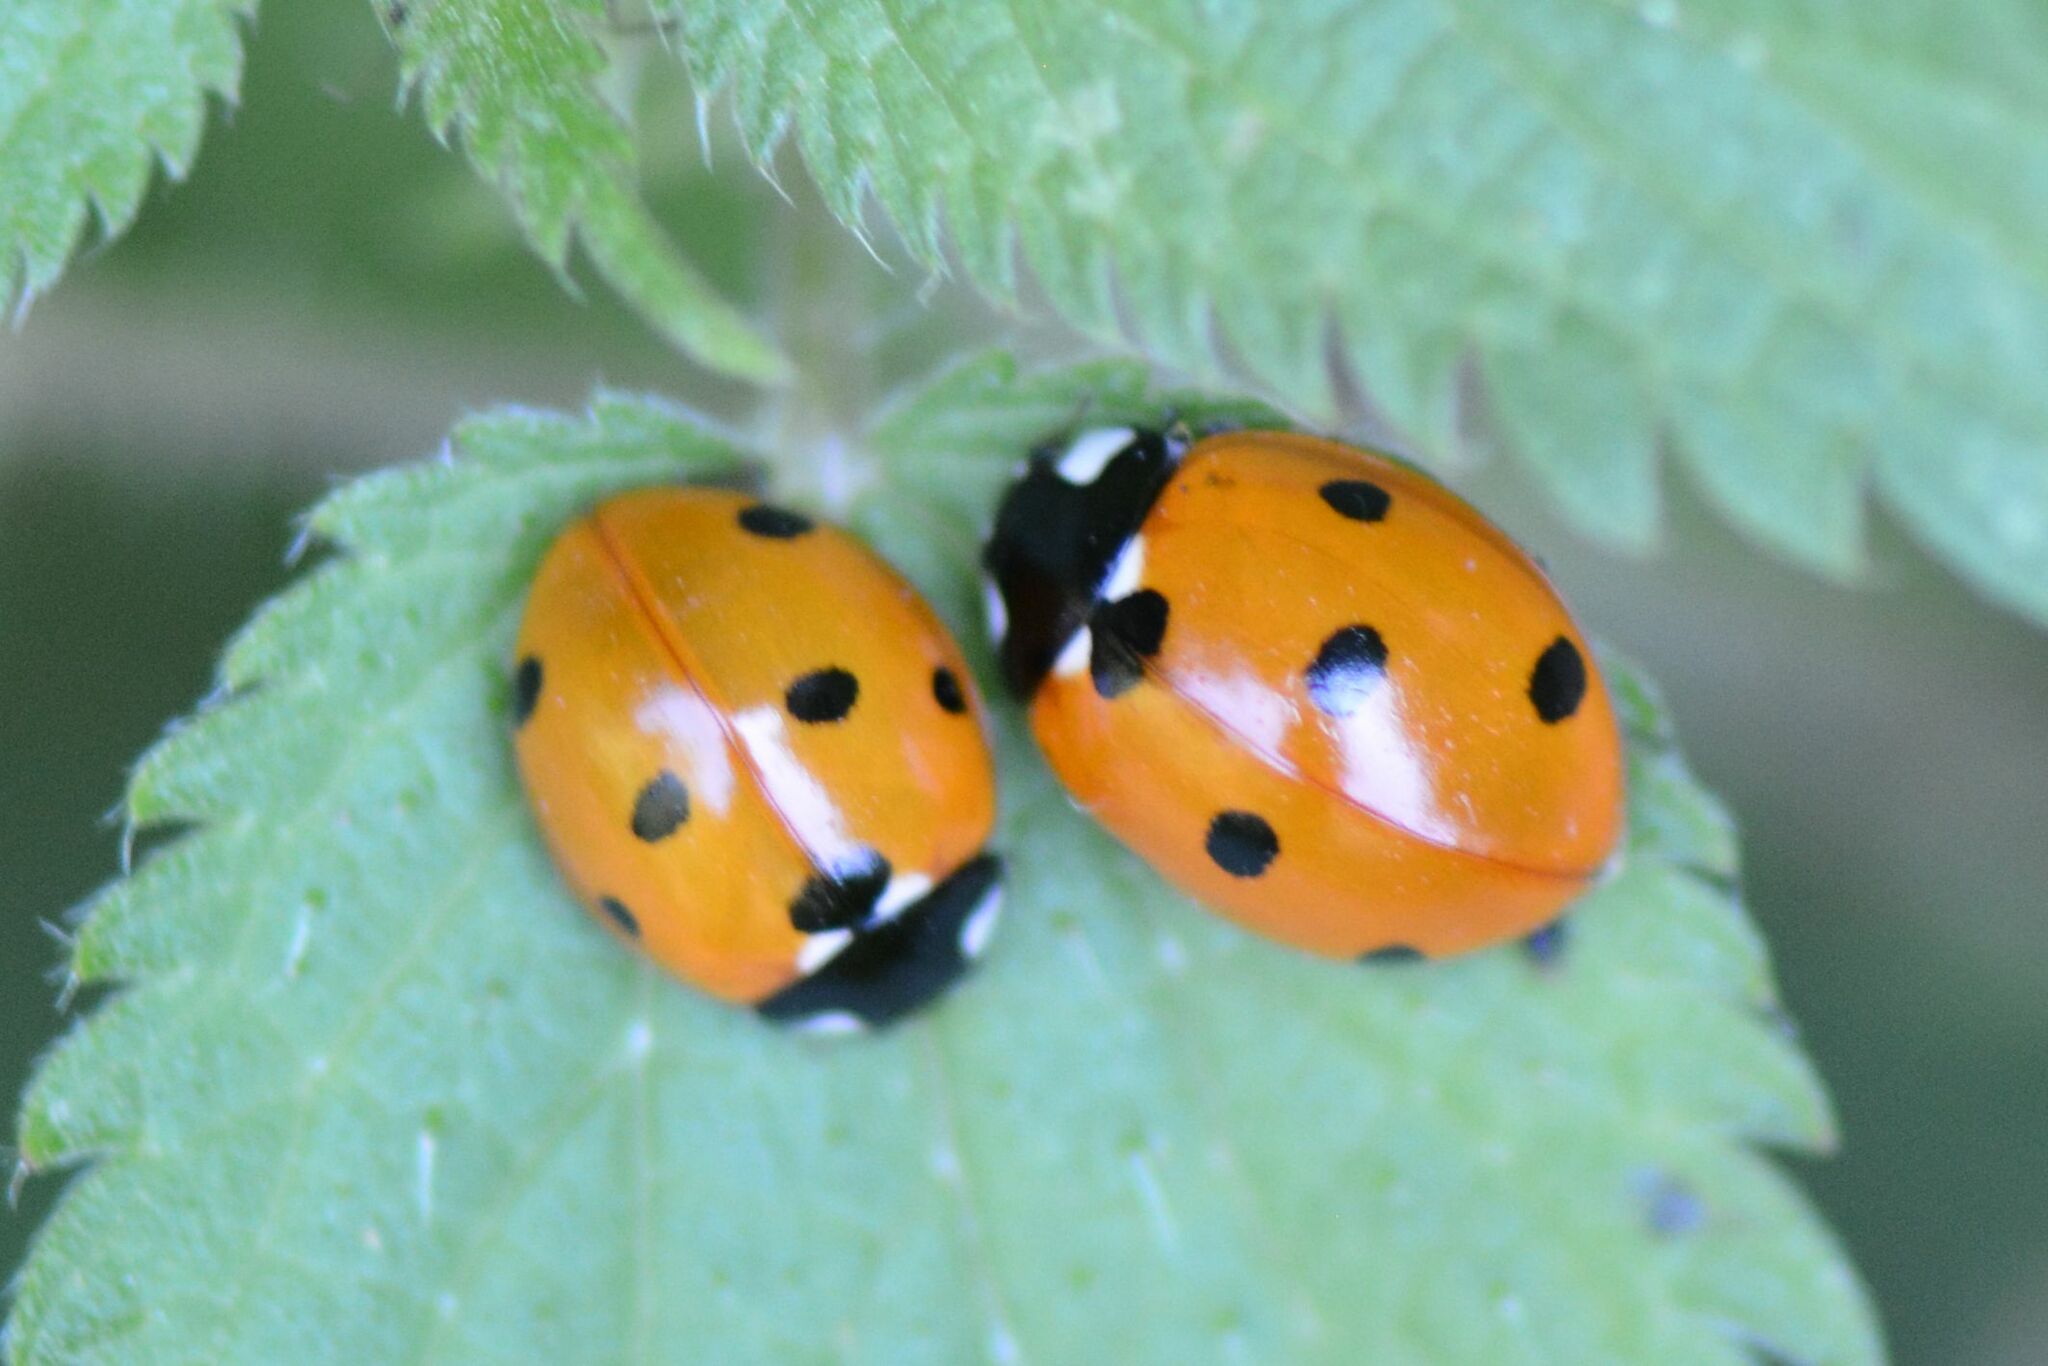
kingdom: Animalia
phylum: Arthropoda
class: Insecta
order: Coleoptera
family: Coccinellidae
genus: Coccinella
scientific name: Coccinella septempunctata
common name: Sevenspotted lady beetle
